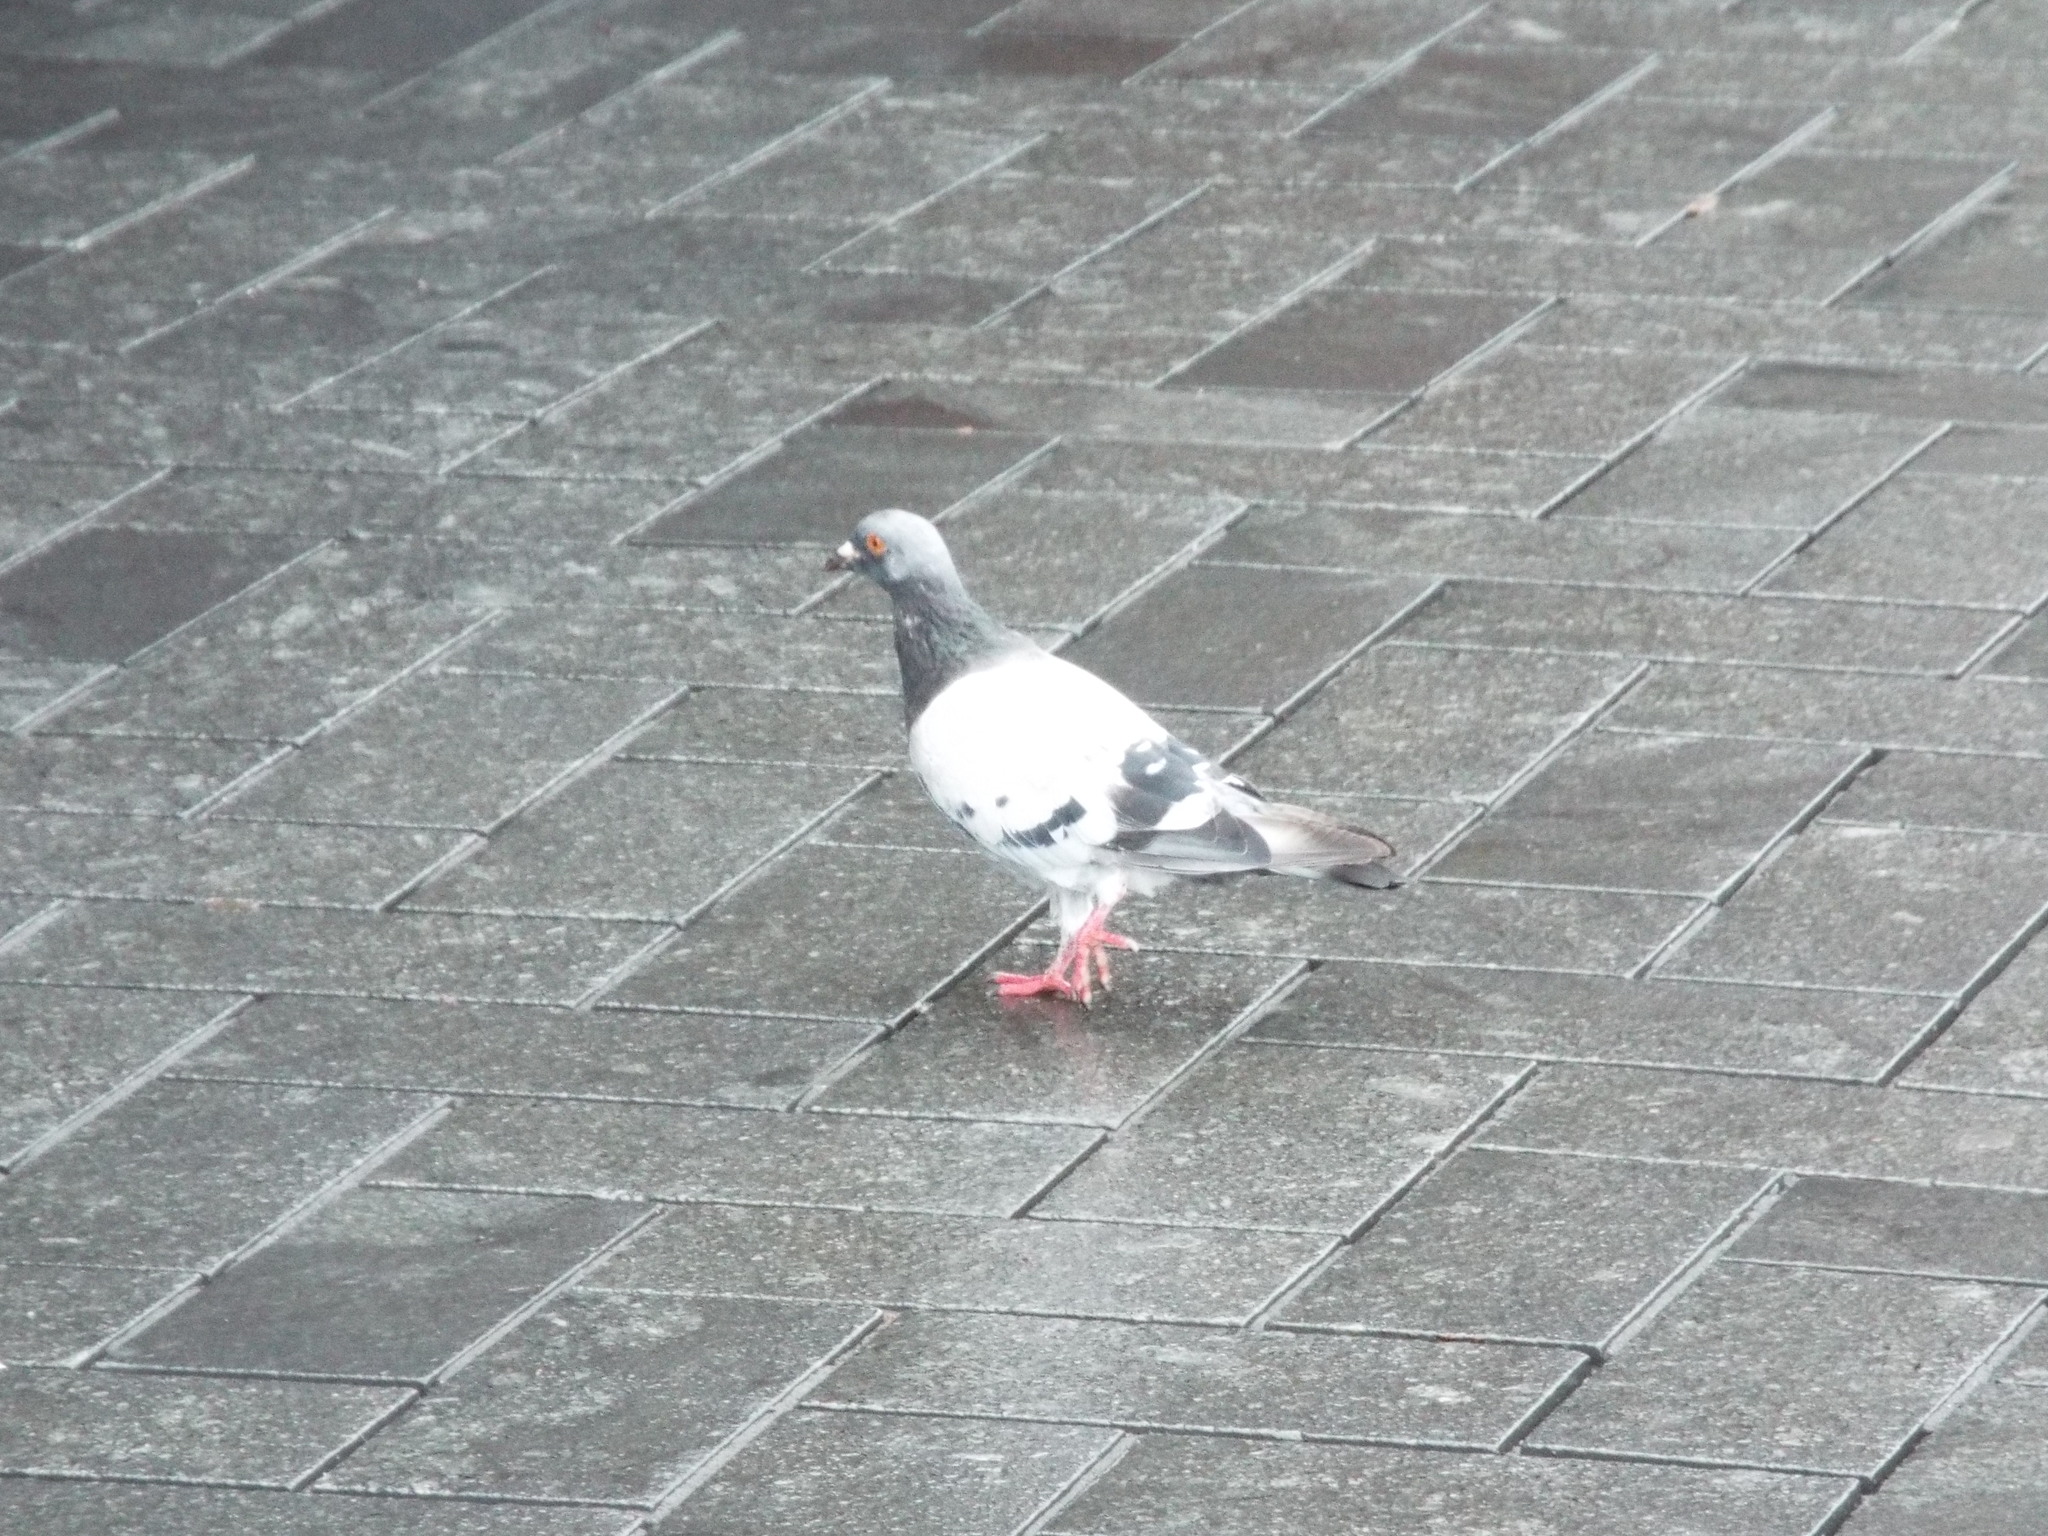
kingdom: Animalia
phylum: Chordata
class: Aves
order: Columbiformes
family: Columbidae
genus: Columba
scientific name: Columba livia
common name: Rock pigeon
